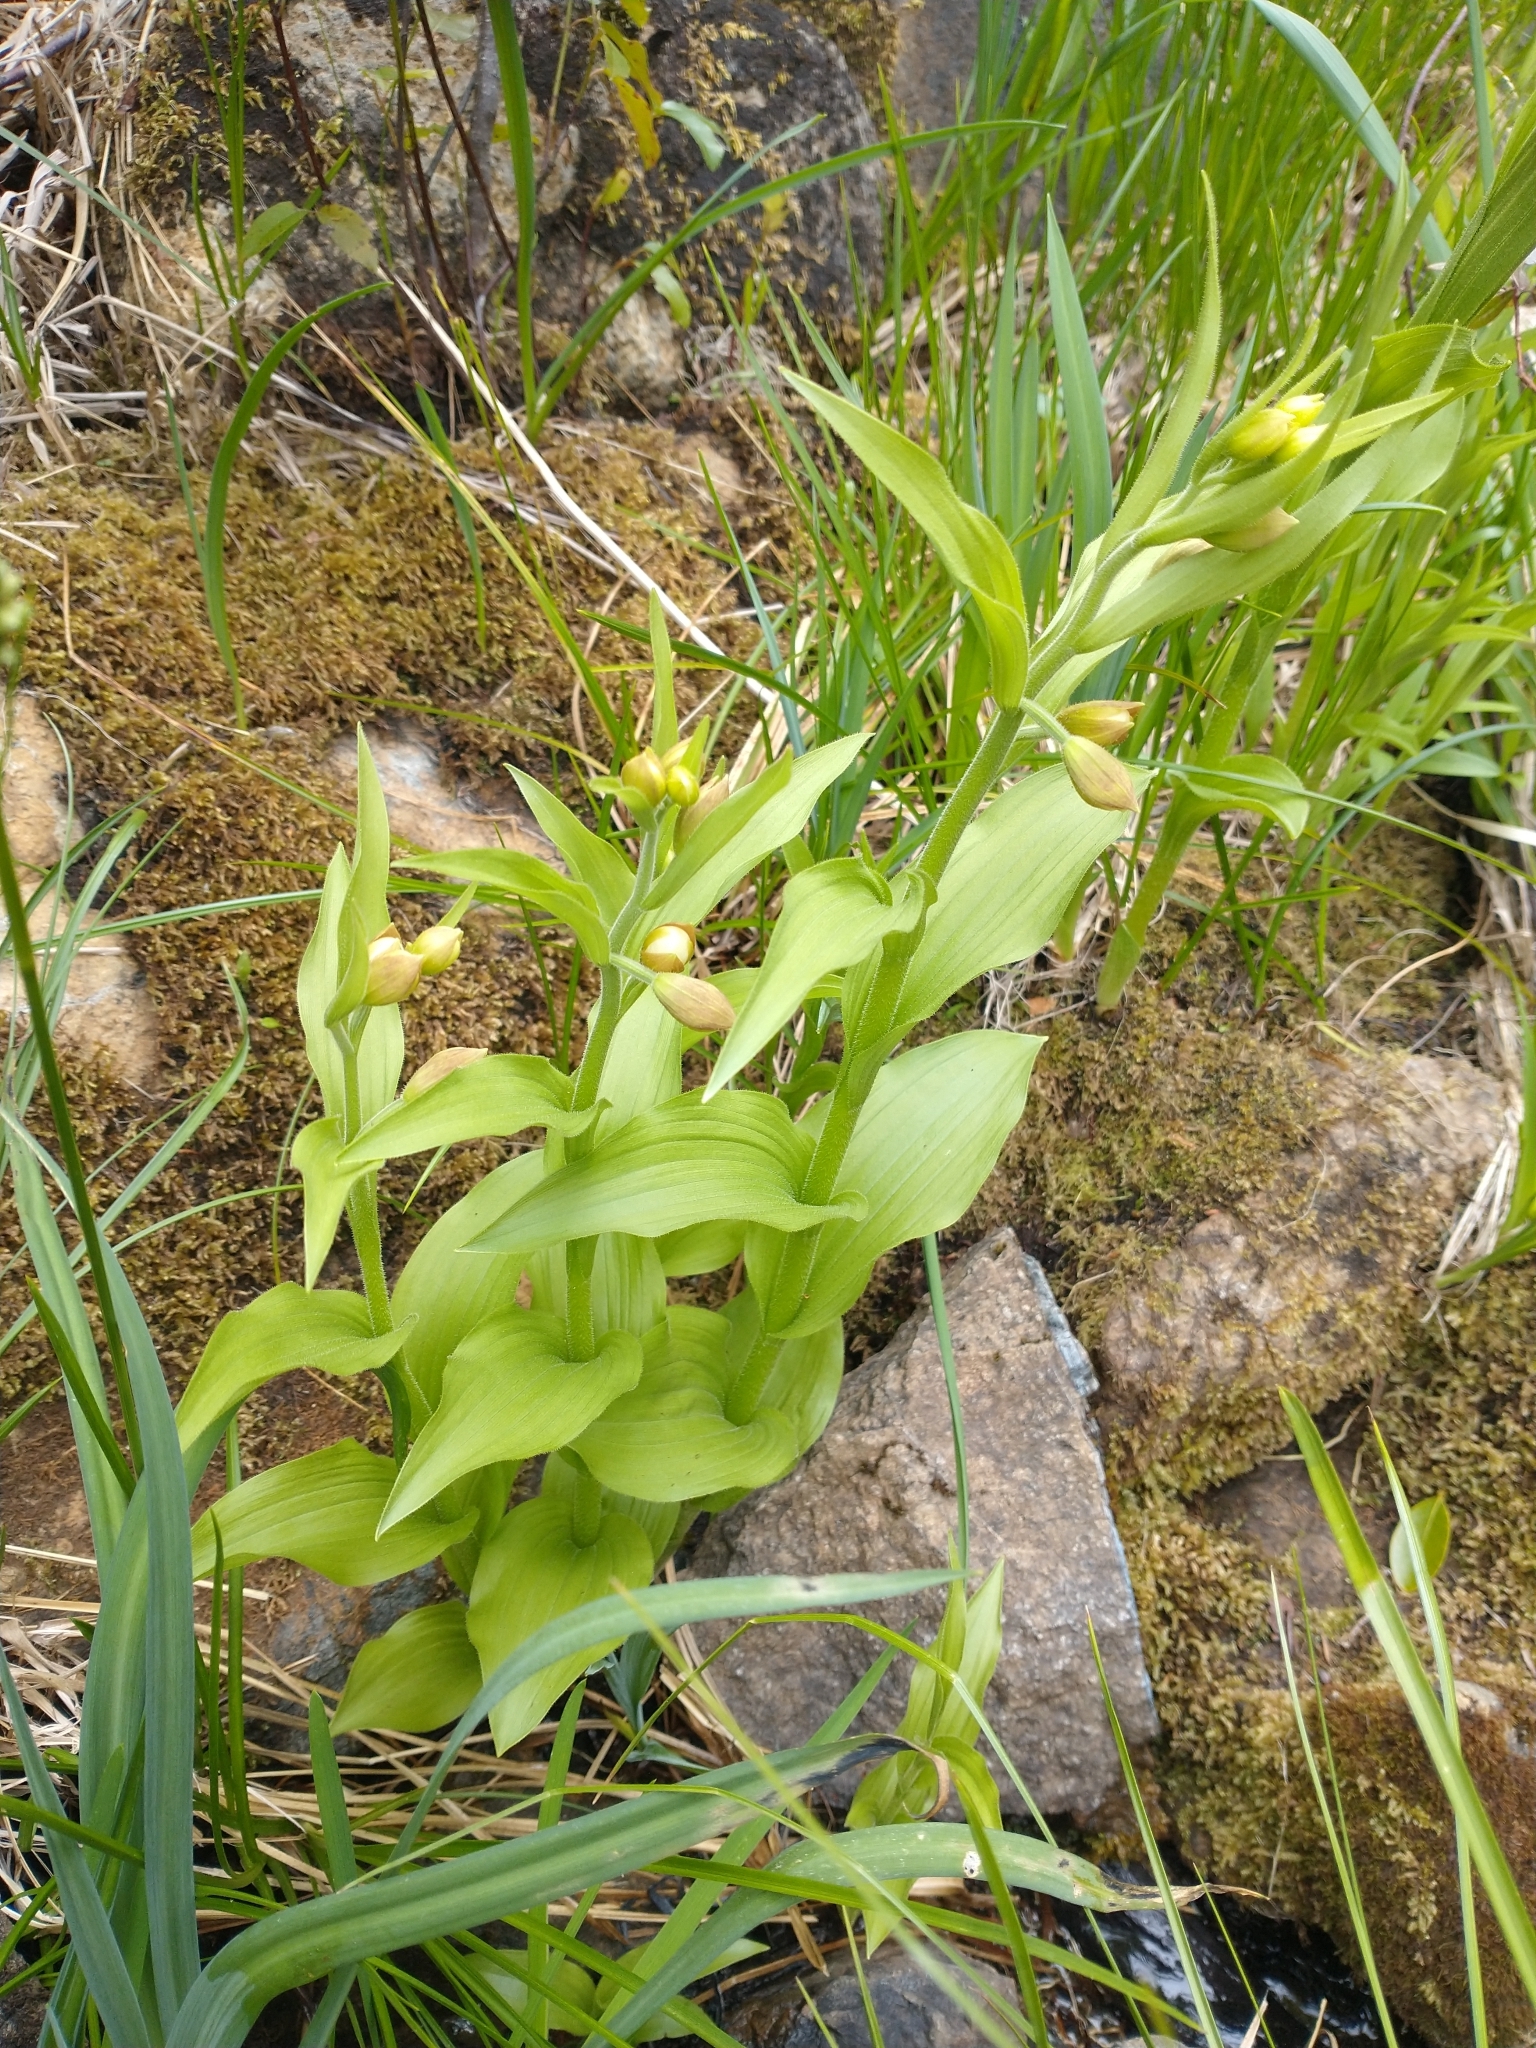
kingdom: Plantae
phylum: Tracheophyta
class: Liliopsida
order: Asparagales
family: Orchidaceae
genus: Cypripedium
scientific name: Cypripedium californicum
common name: California lady's slipper
